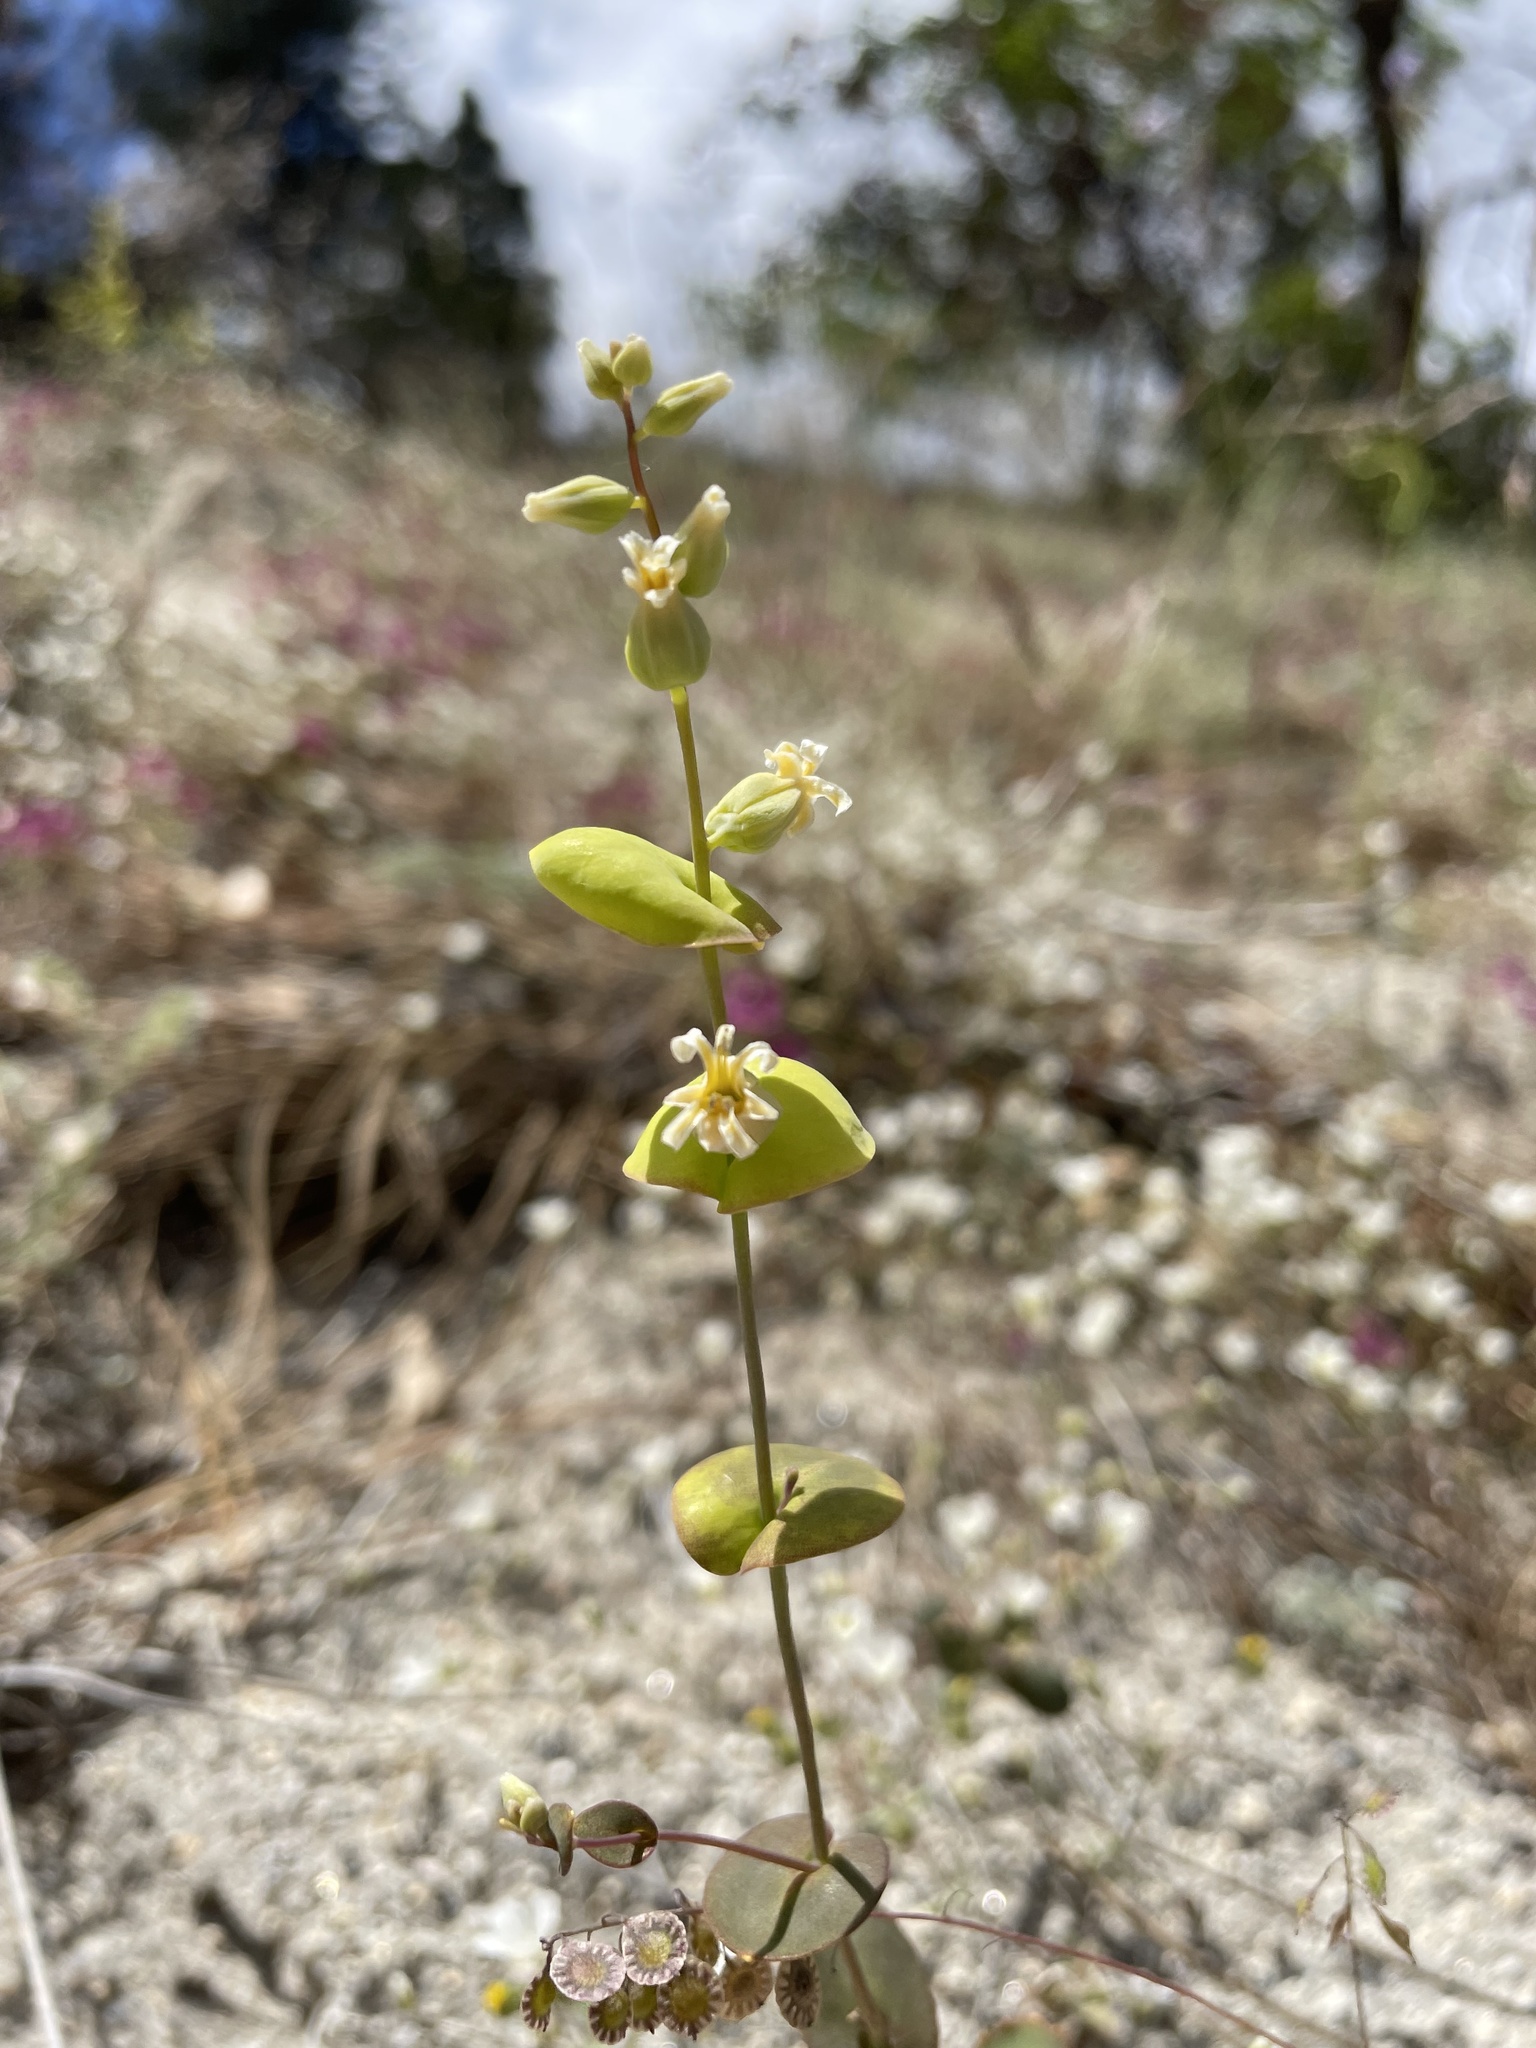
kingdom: Plantae
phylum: Tracheophyta
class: Magnoliopsida
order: Brassicales
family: Brassicaceae
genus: Streptanthus
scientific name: Streptanthus tortuosus
